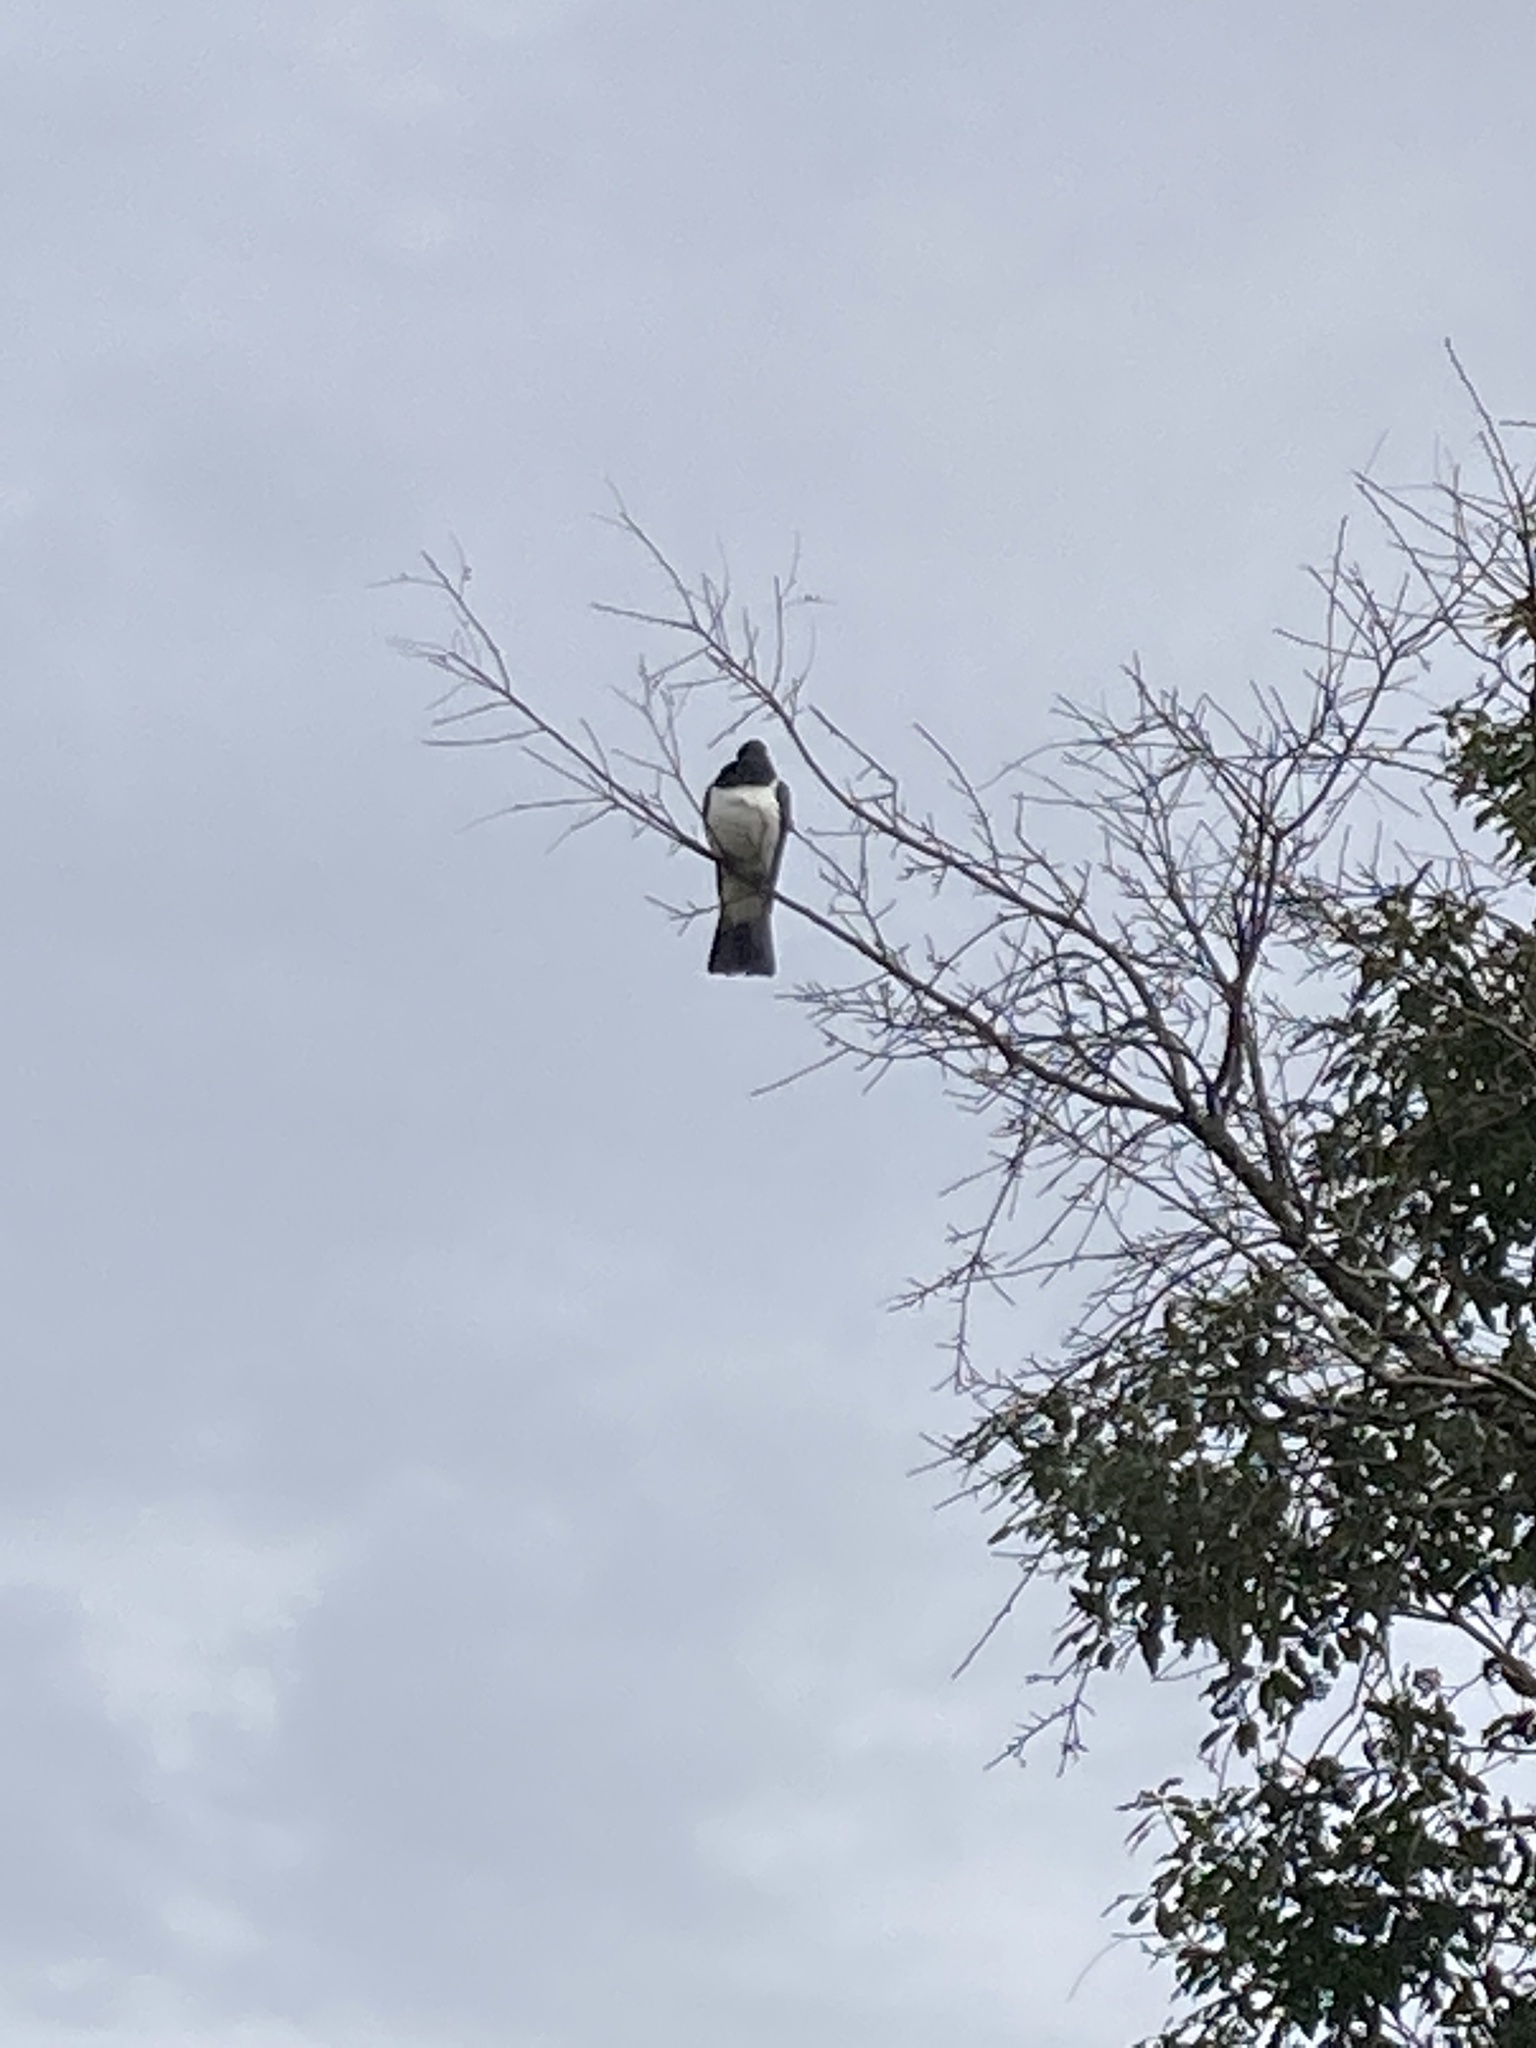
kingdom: Animalia
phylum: Chordata
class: Aves
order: Columbiformes
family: Columbidae
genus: Hemiphaga
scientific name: Hemiphaga novaeseelandiae
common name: New zealand pigeon
